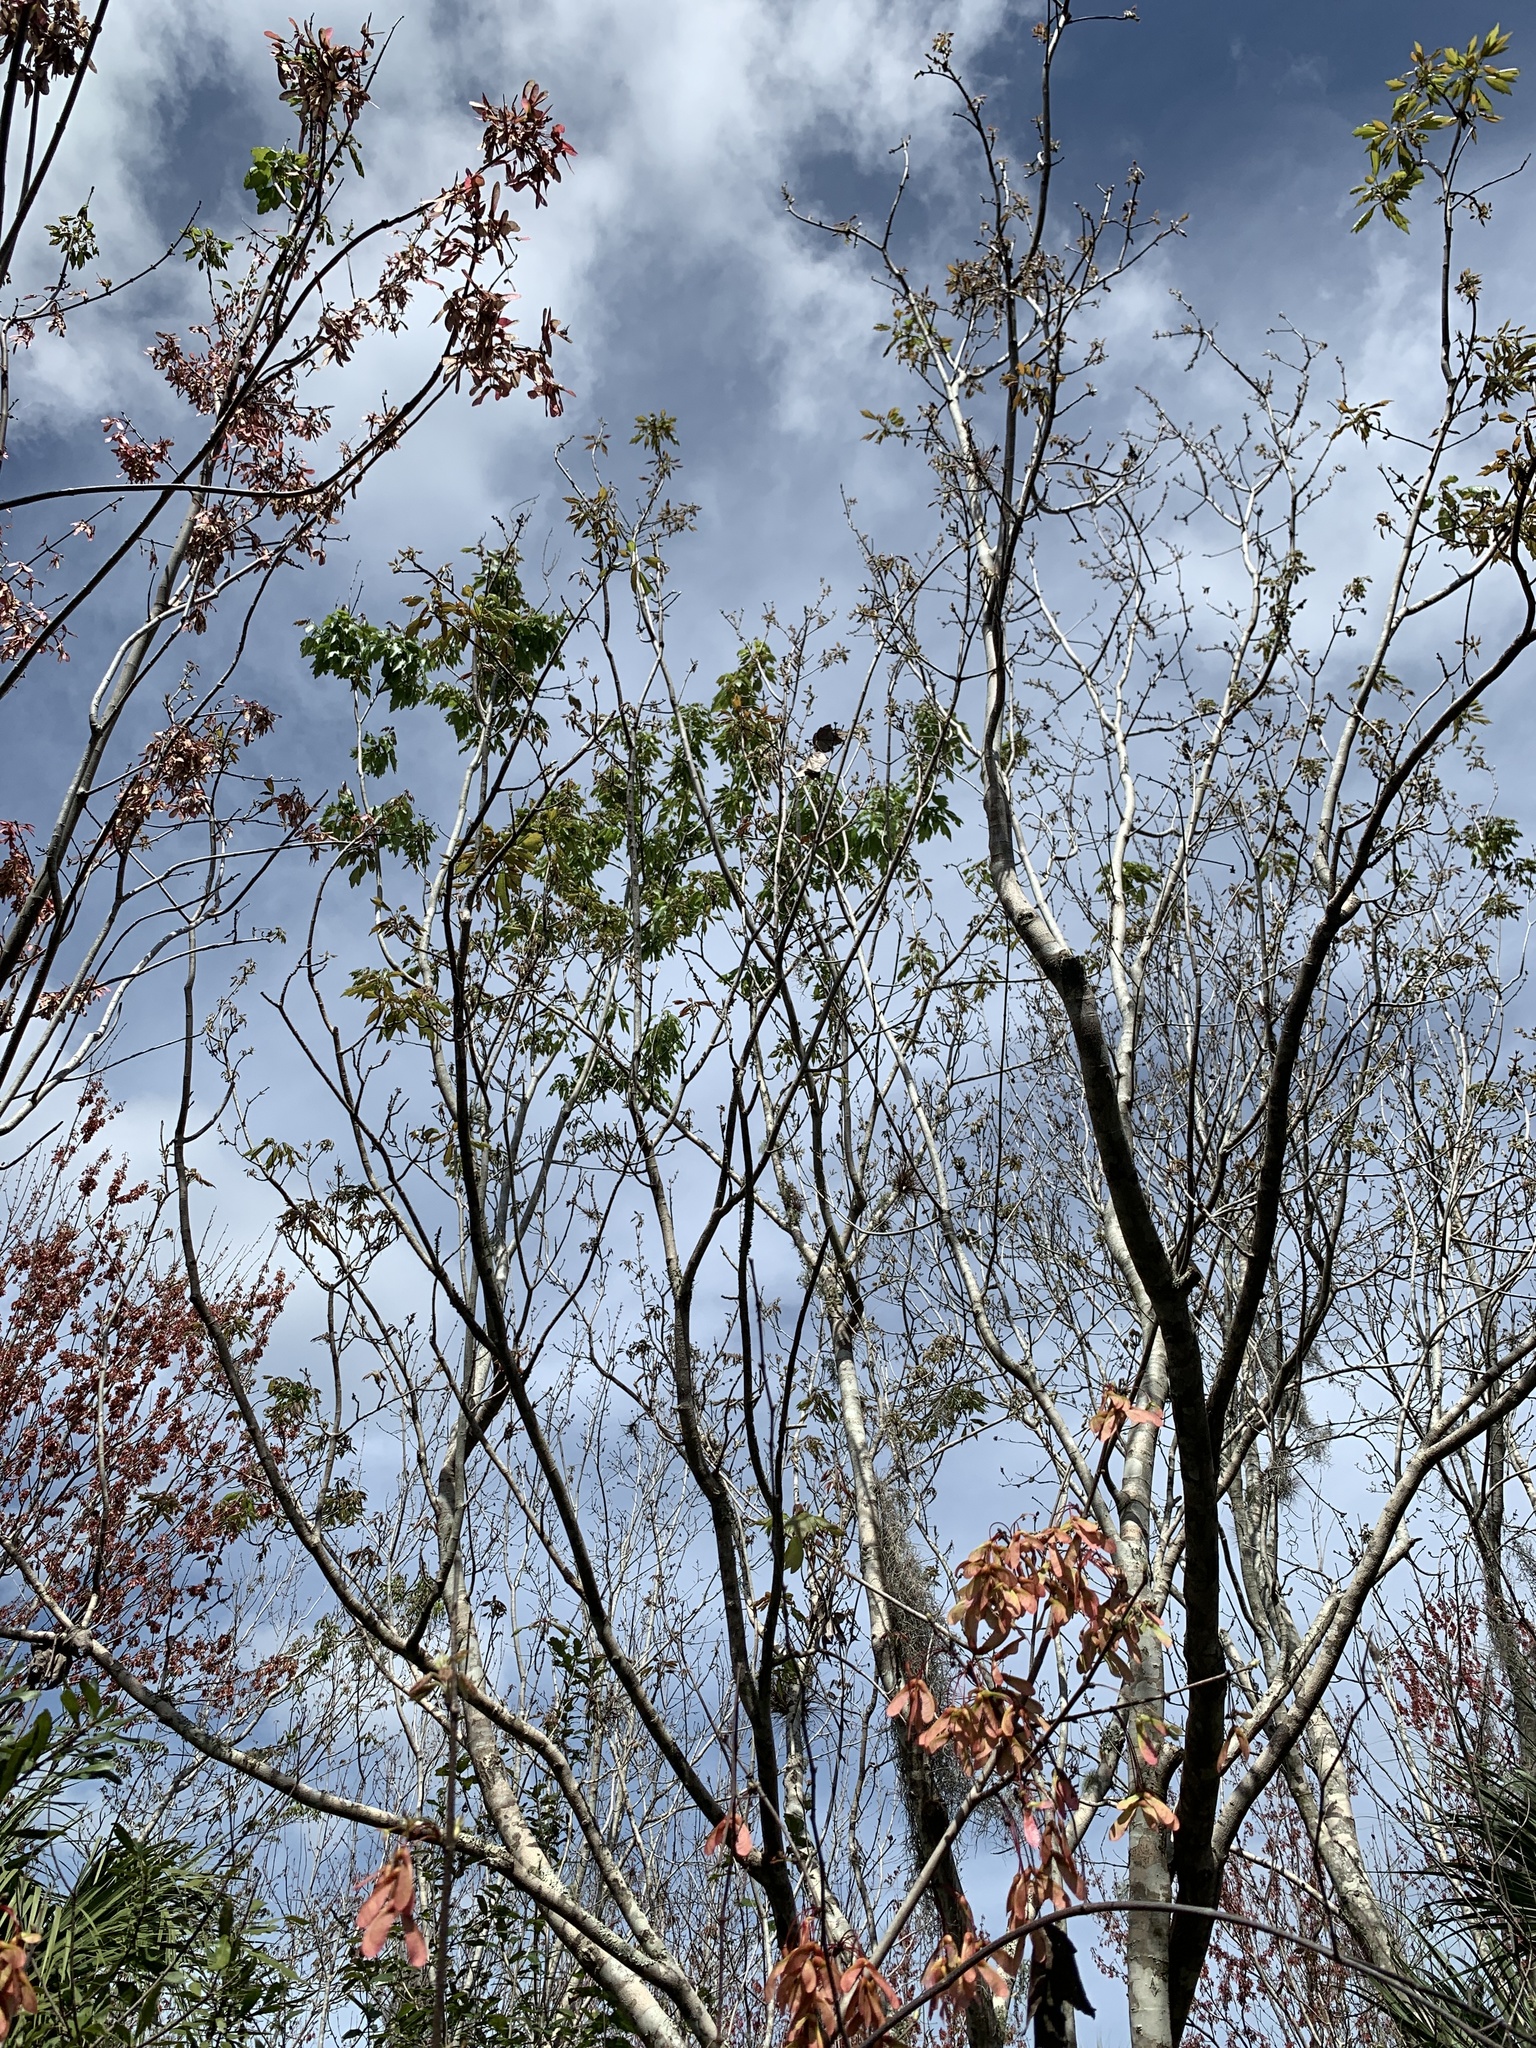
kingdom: Plantae
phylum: Tracheophyta
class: Magnoliopsida
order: Sapindales
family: Sapindaceae
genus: Acer
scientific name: Acer rubrum
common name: Red maple
